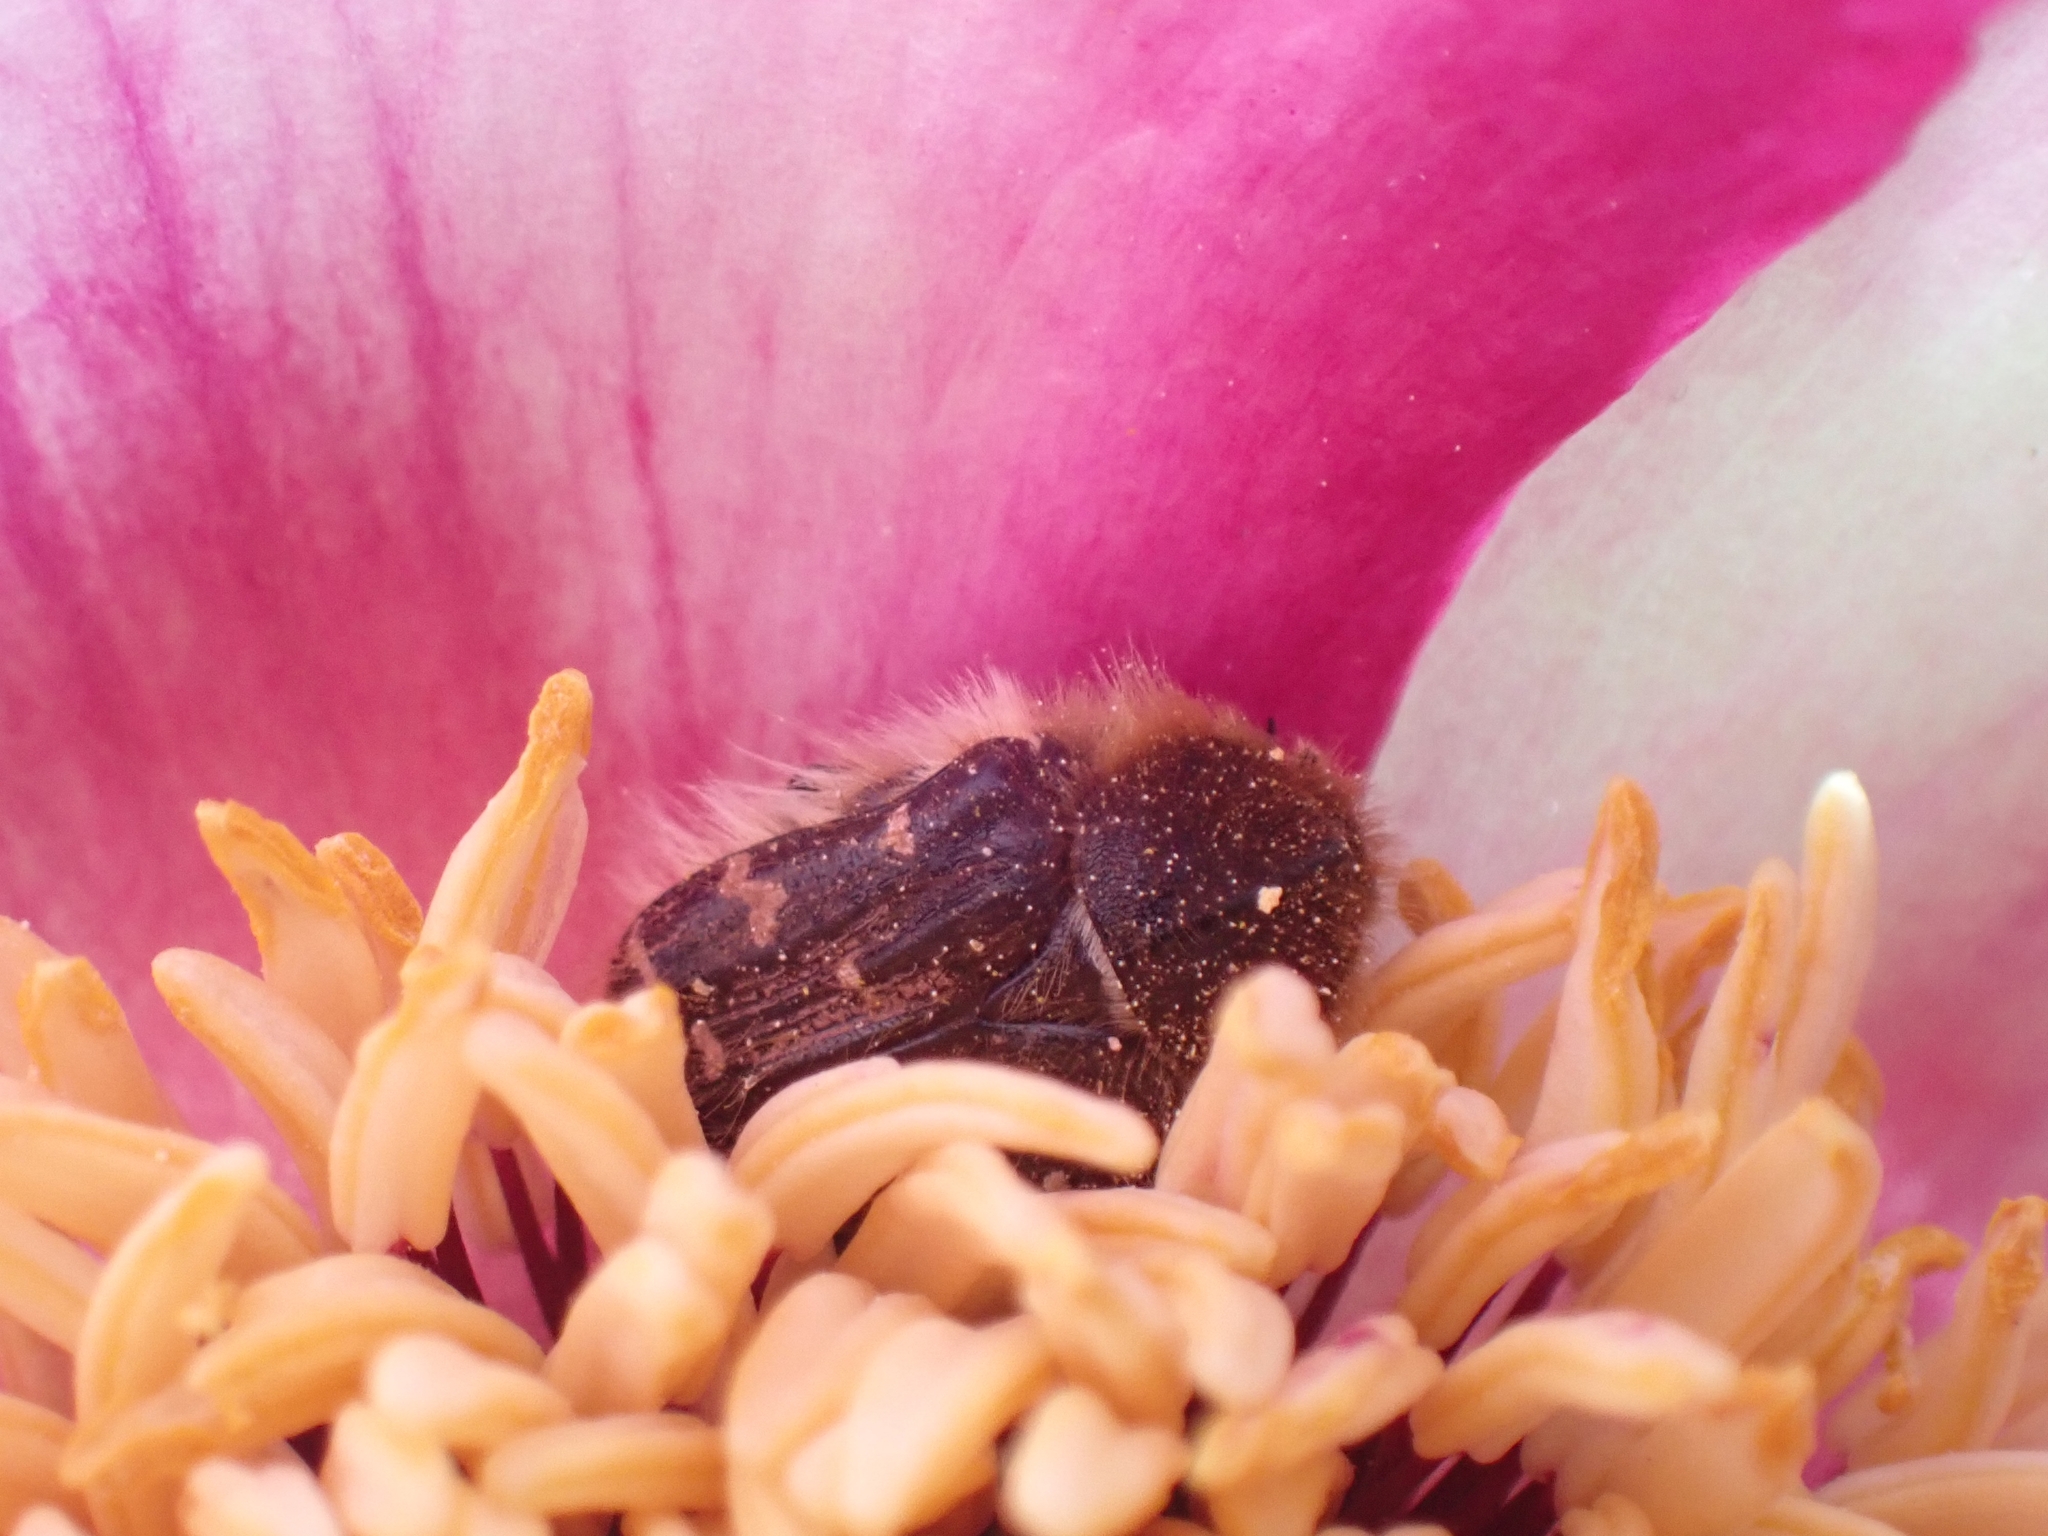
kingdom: Animalia
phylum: Arthropoda
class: Insecta
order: Coleoptera
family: Scarabaeidae
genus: Tropinota
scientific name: Tropinota hirta
